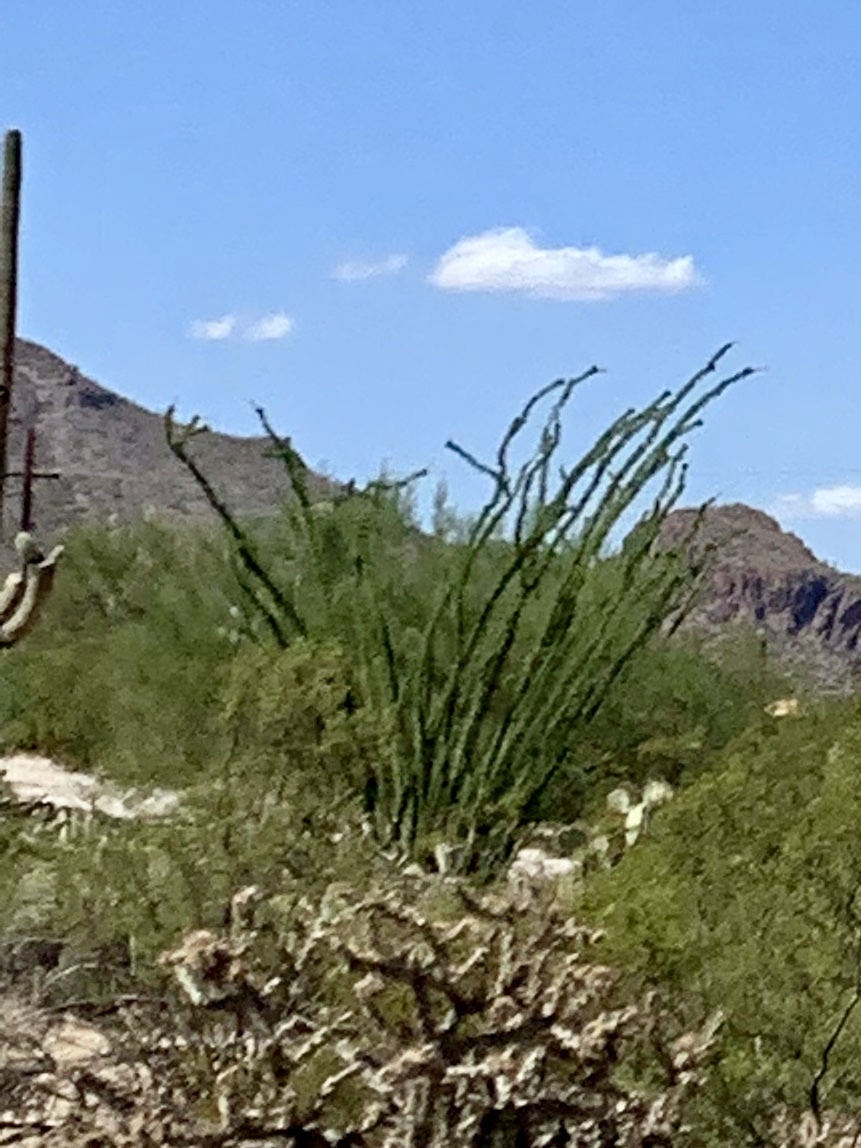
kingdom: Plantae
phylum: Tracheophyta
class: Magnoliopsida
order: Ericales
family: Fouquieriaceae
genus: Fouquieria
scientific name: Fouquieria splendens
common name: Vine-cactus
